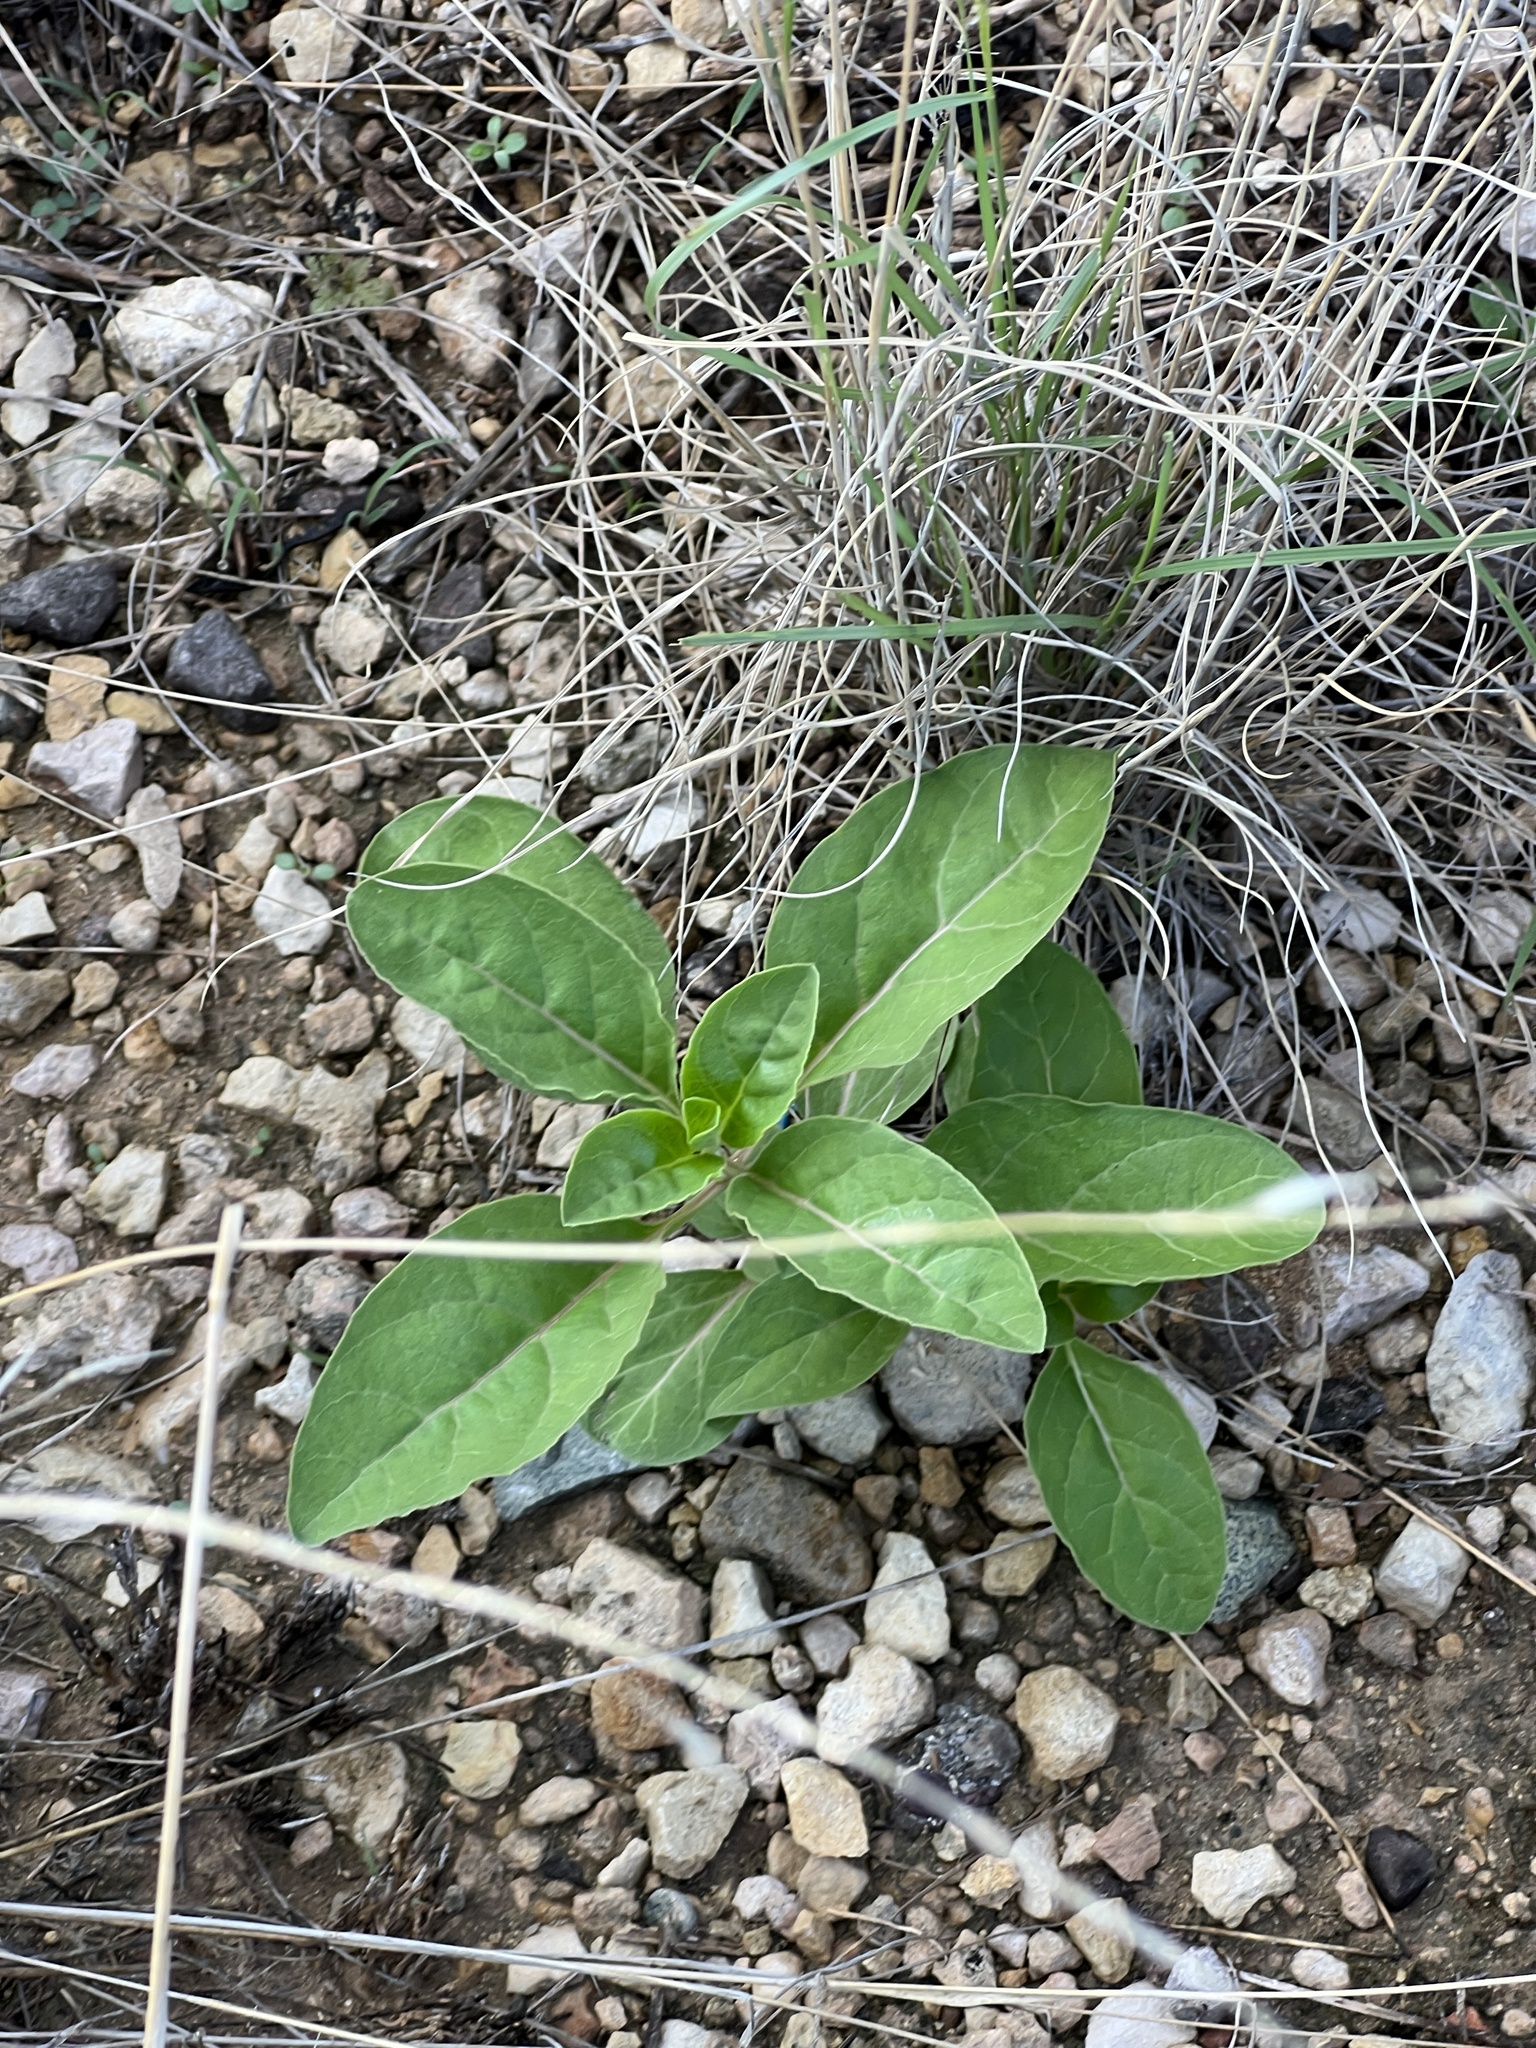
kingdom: Plantae
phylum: Tracheophyta
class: Magnoliopsida
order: Gentianales
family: Apocynaceae
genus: Asclepias
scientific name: Asclepias oenotheroides
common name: Zizotes milkweed
